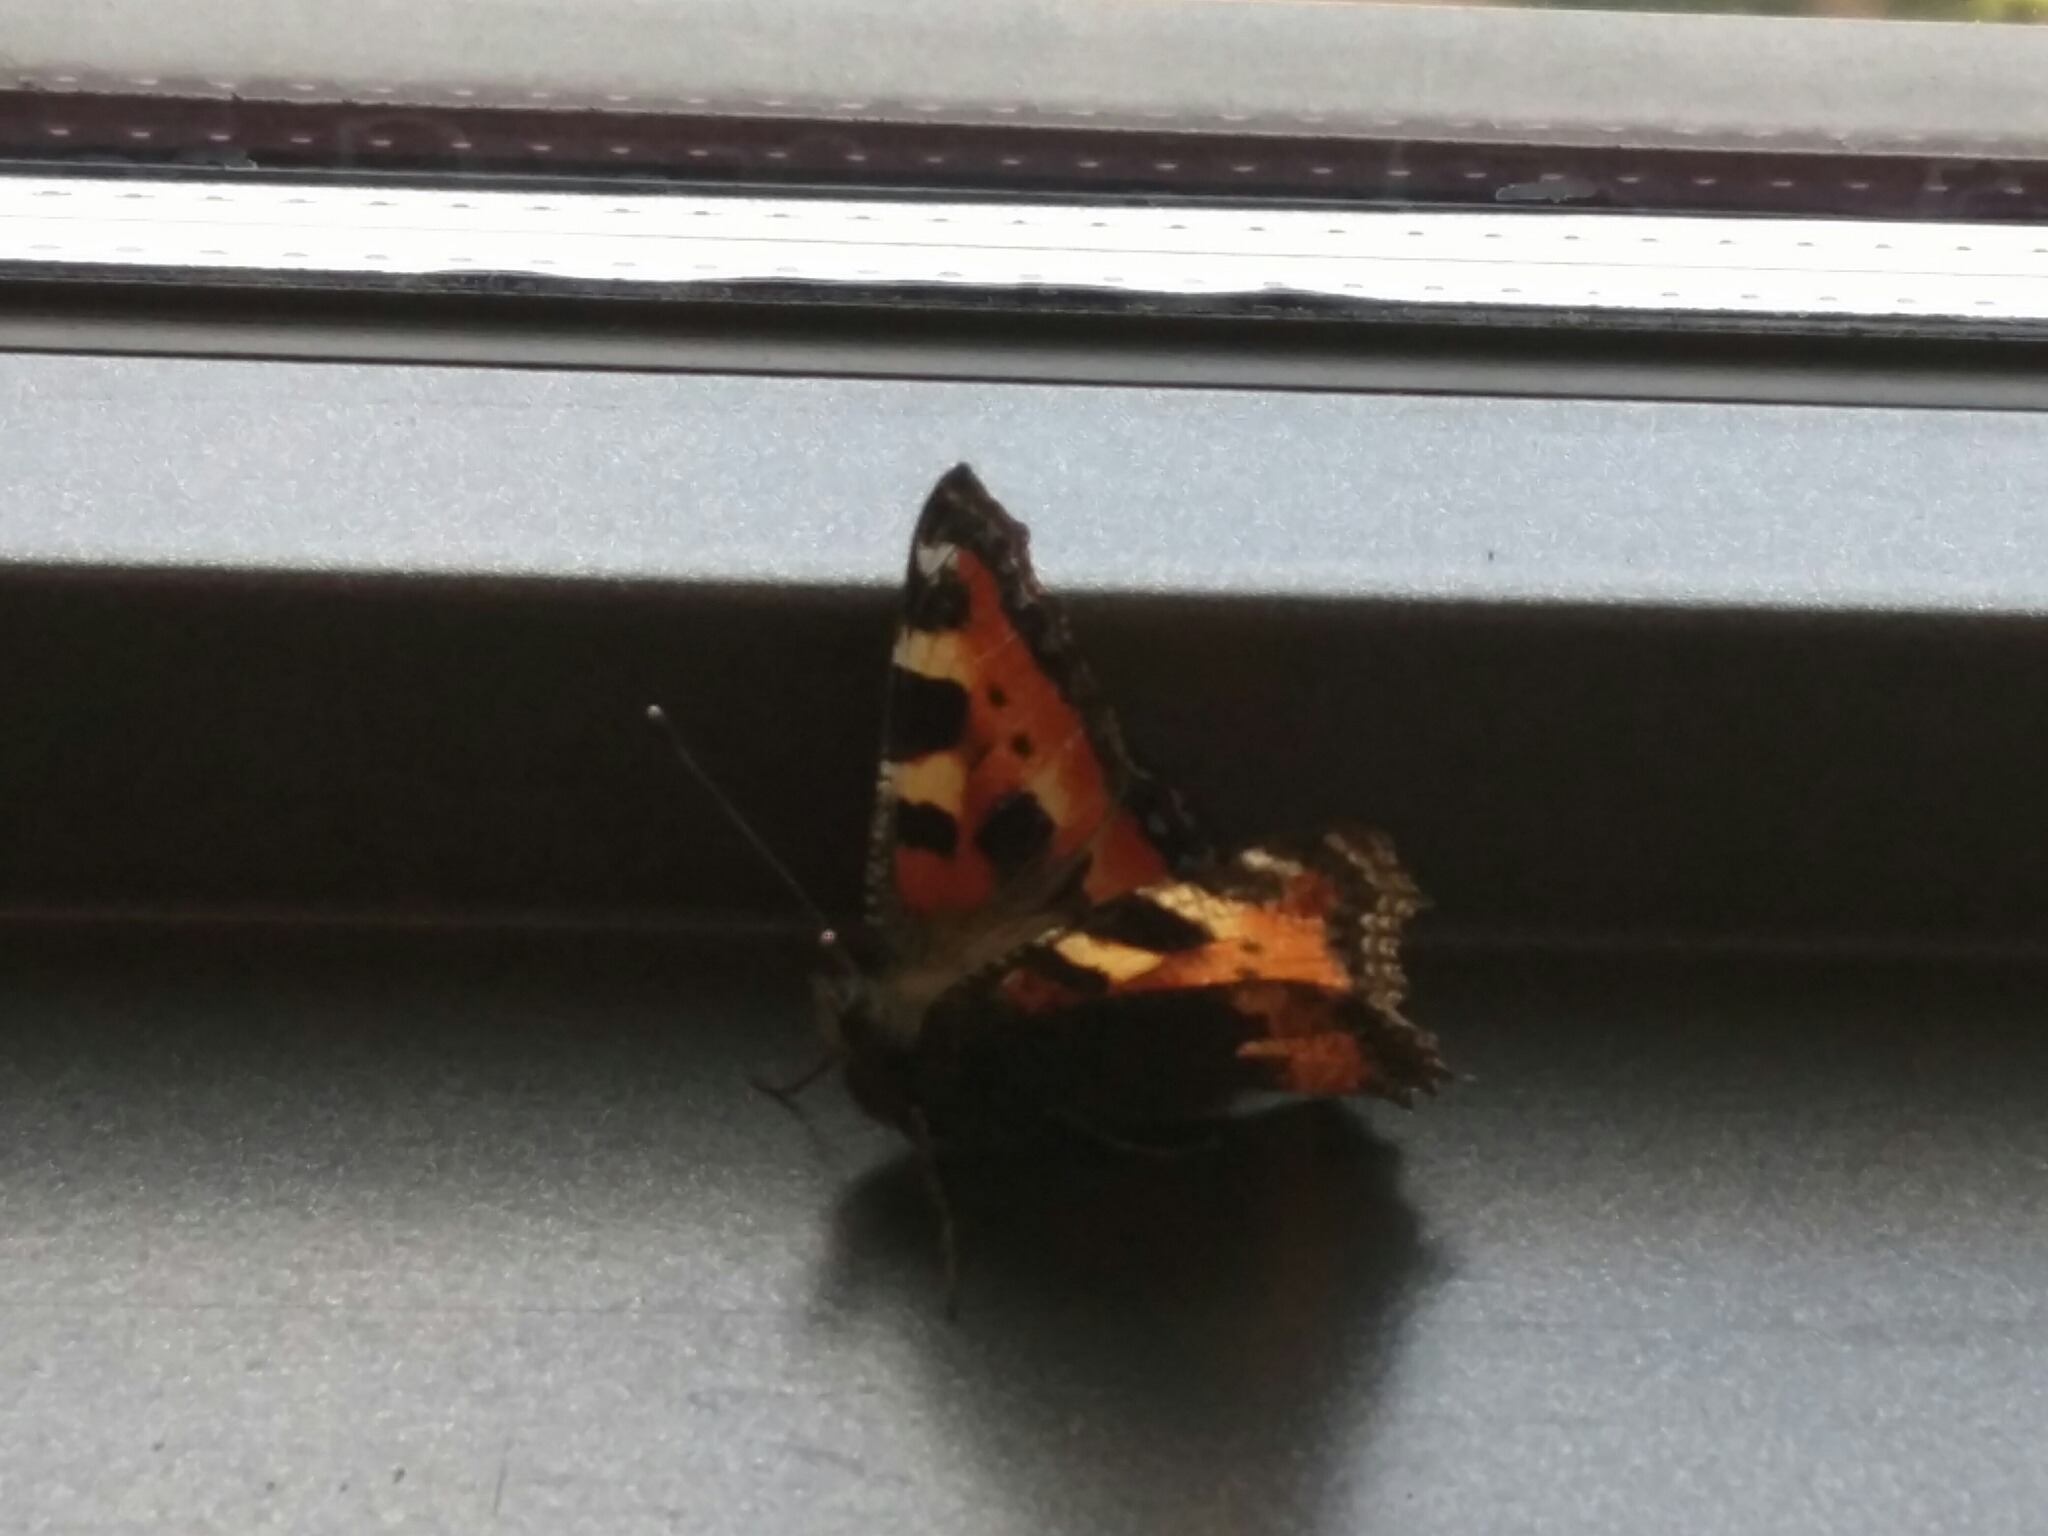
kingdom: Animalia
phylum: Arthropoda
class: Insecta
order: Lepidoptera
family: Nymphalidae
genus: Aglais
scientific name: Aglais urticae
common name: Small tortoiseshell
